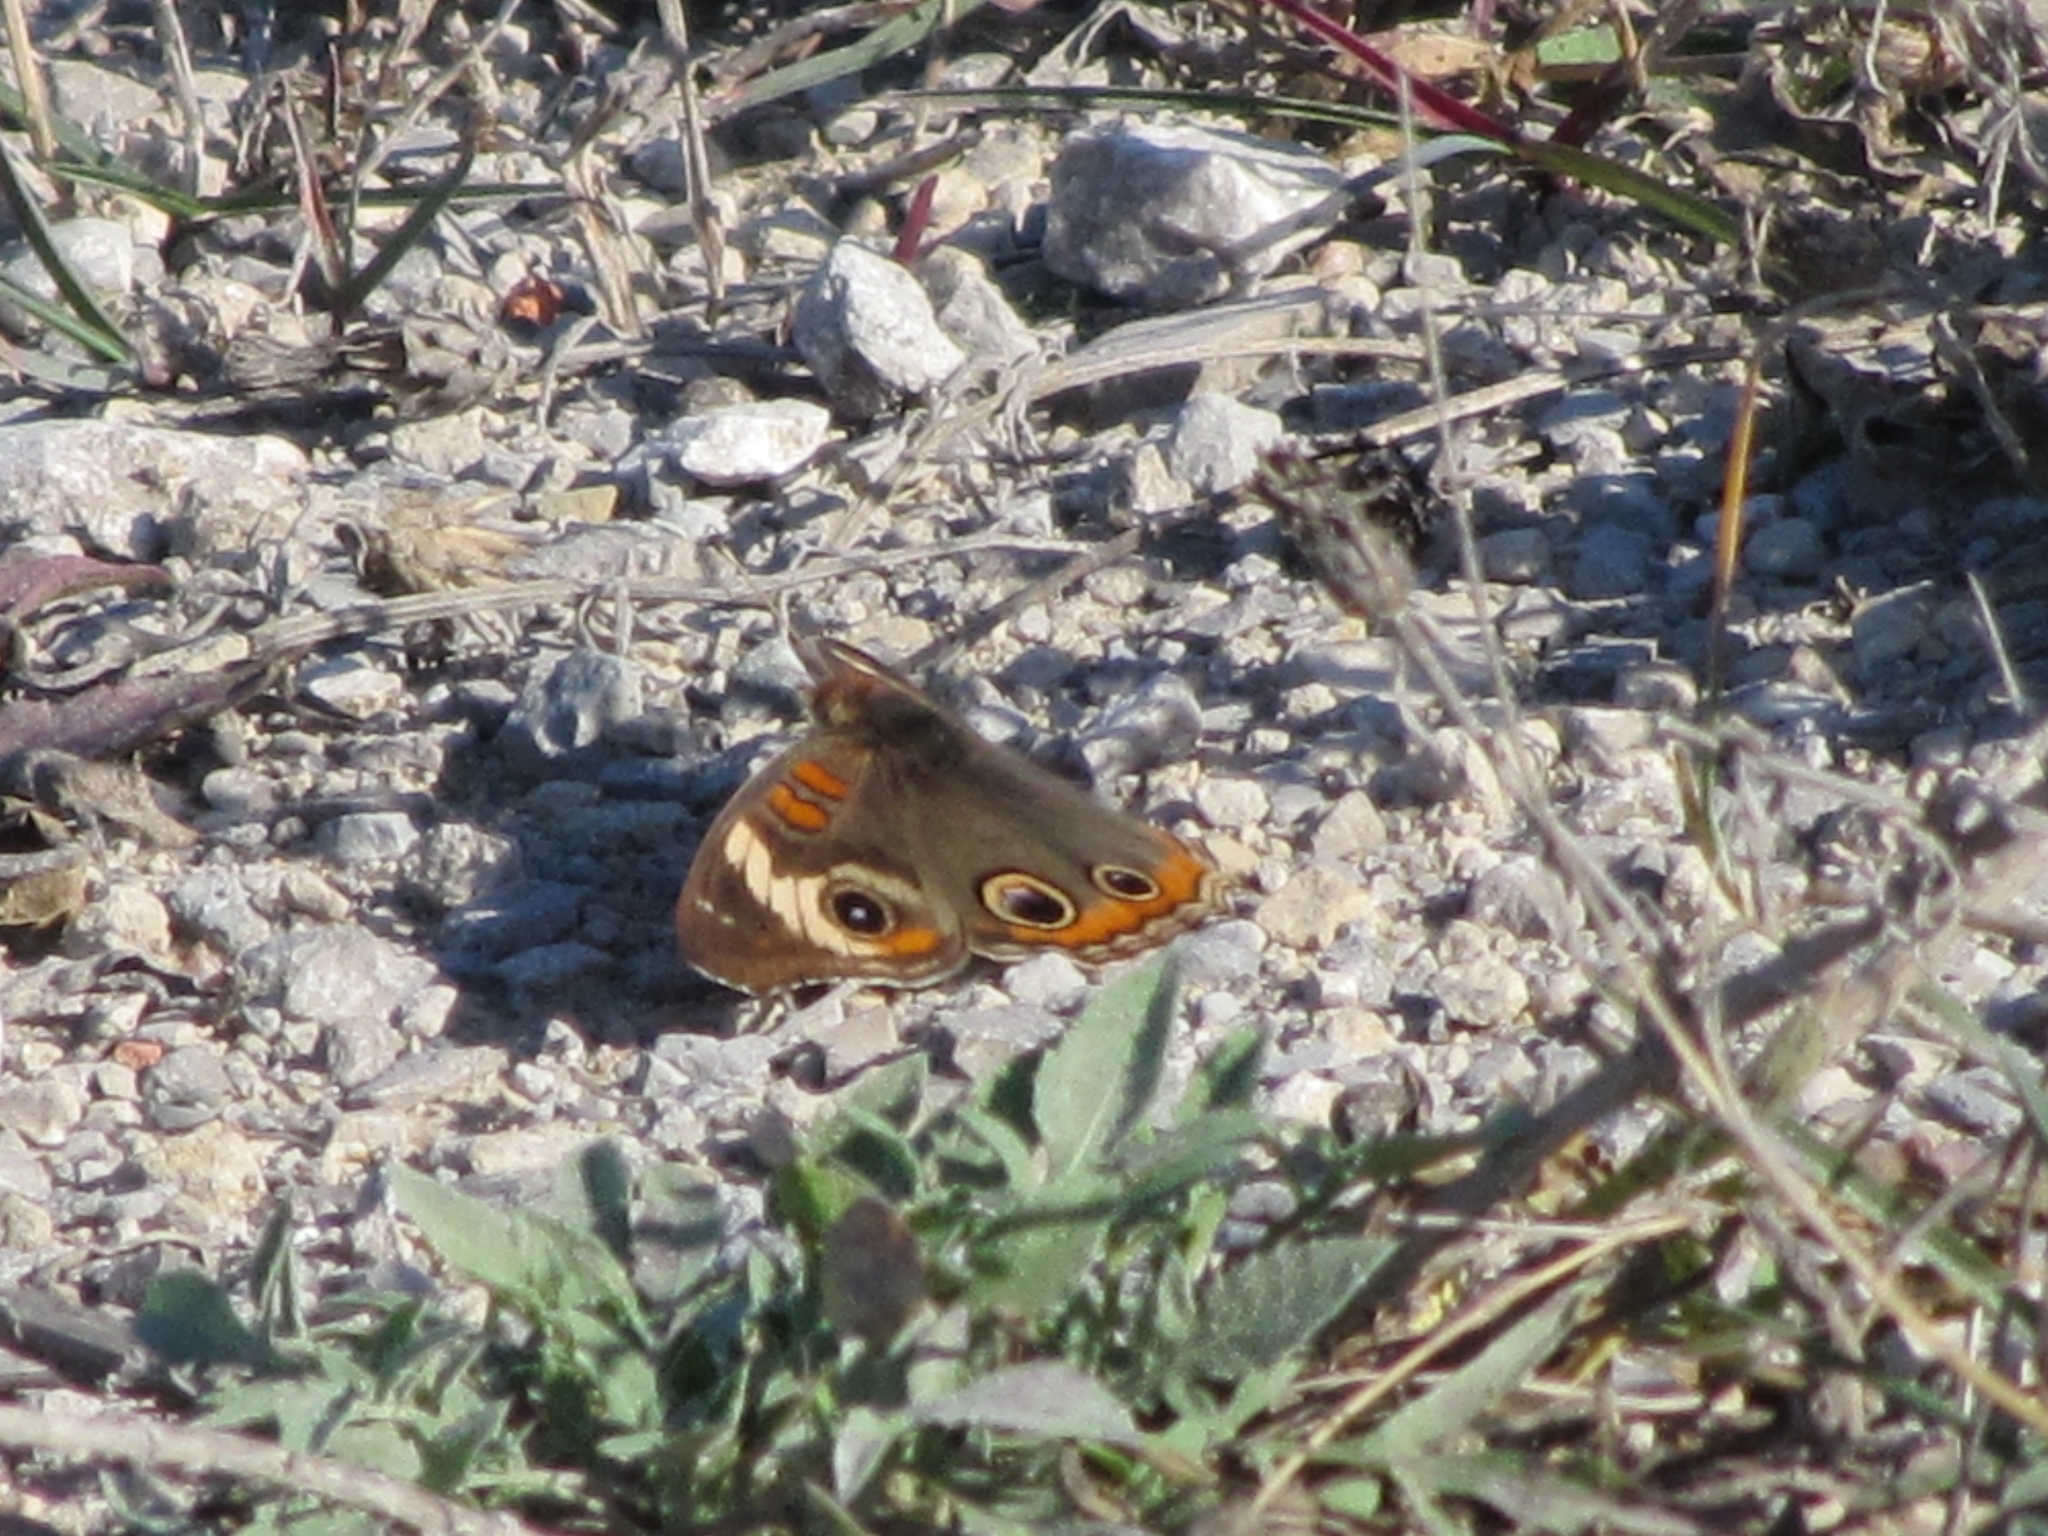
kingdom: Animalia
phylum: Arthropoda
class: Insecta
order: Lepidoptera
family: Nymphalidae
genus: Junonia
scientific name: Junonia coenia
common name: Common buckeye
